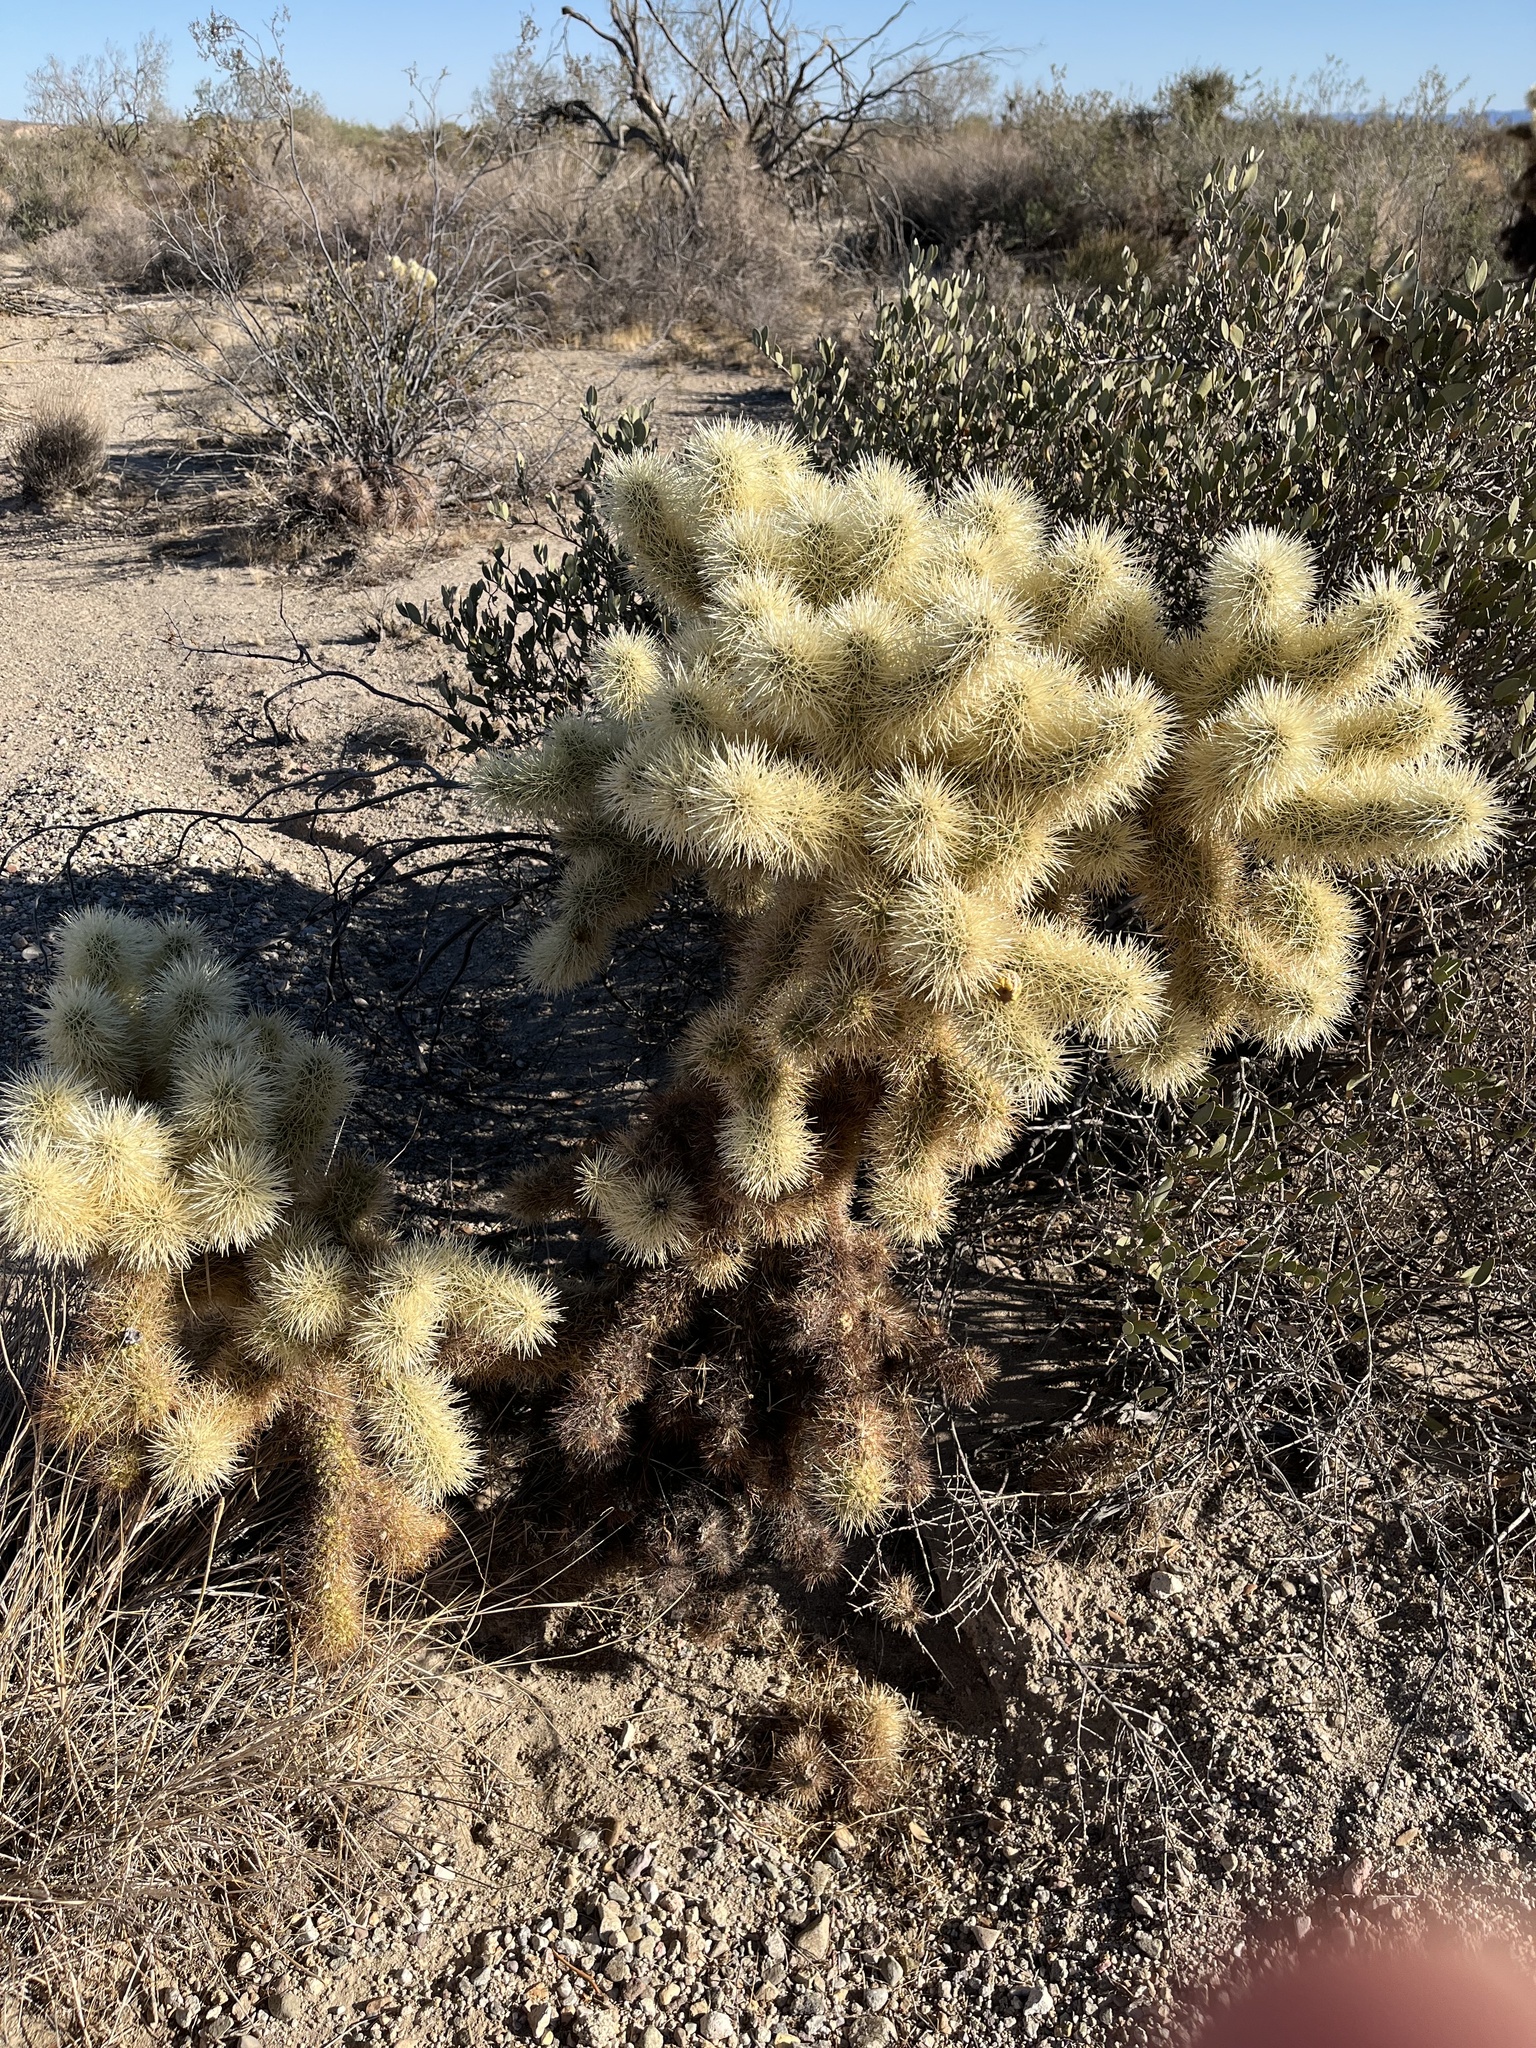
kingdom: Plantae
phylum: Tracheophyta
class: Magnoliopsida
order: Caryophyllales
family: Cactaceae
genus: Cylindropuntia
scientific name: Cylindropuntia fosbergii
